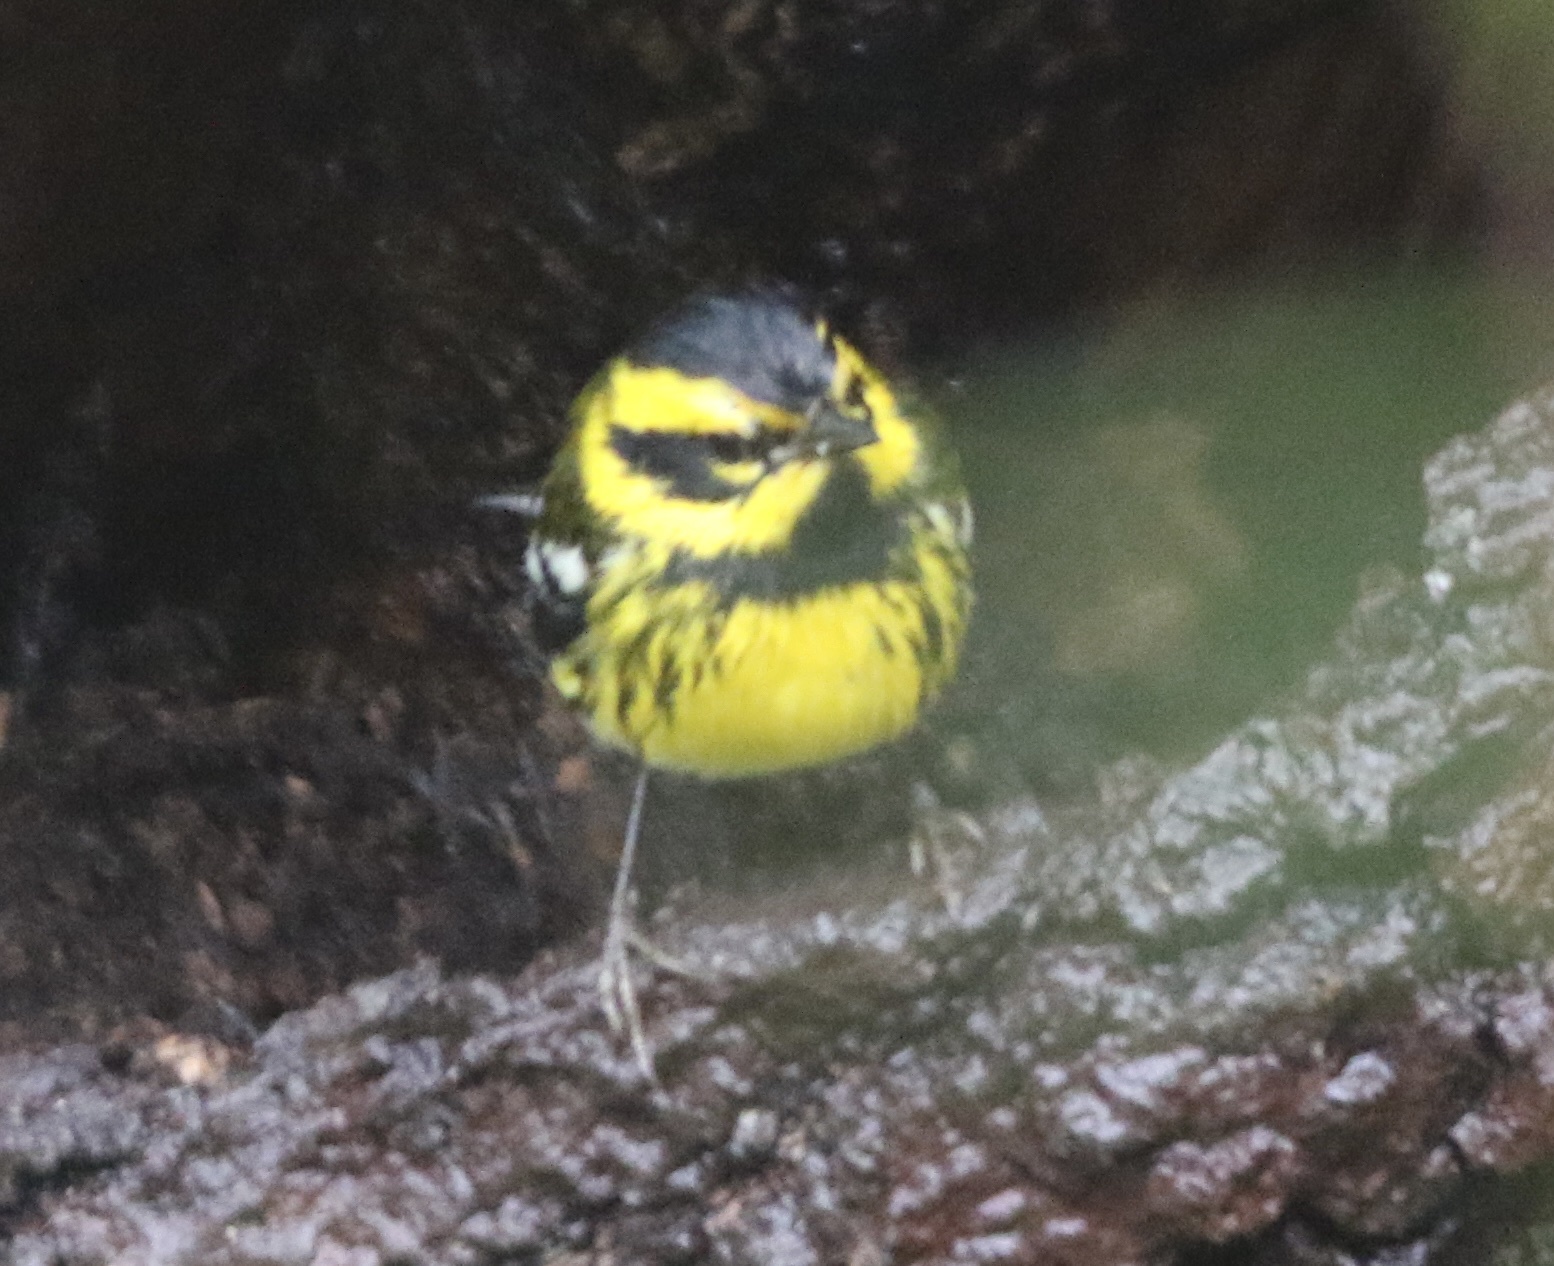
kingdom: Animalia
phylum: Chordata
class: Aves
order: Passeriformes
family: Parulidae
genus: Setophaga
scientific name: Setophaga townsendi
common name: Townsend's warbler
